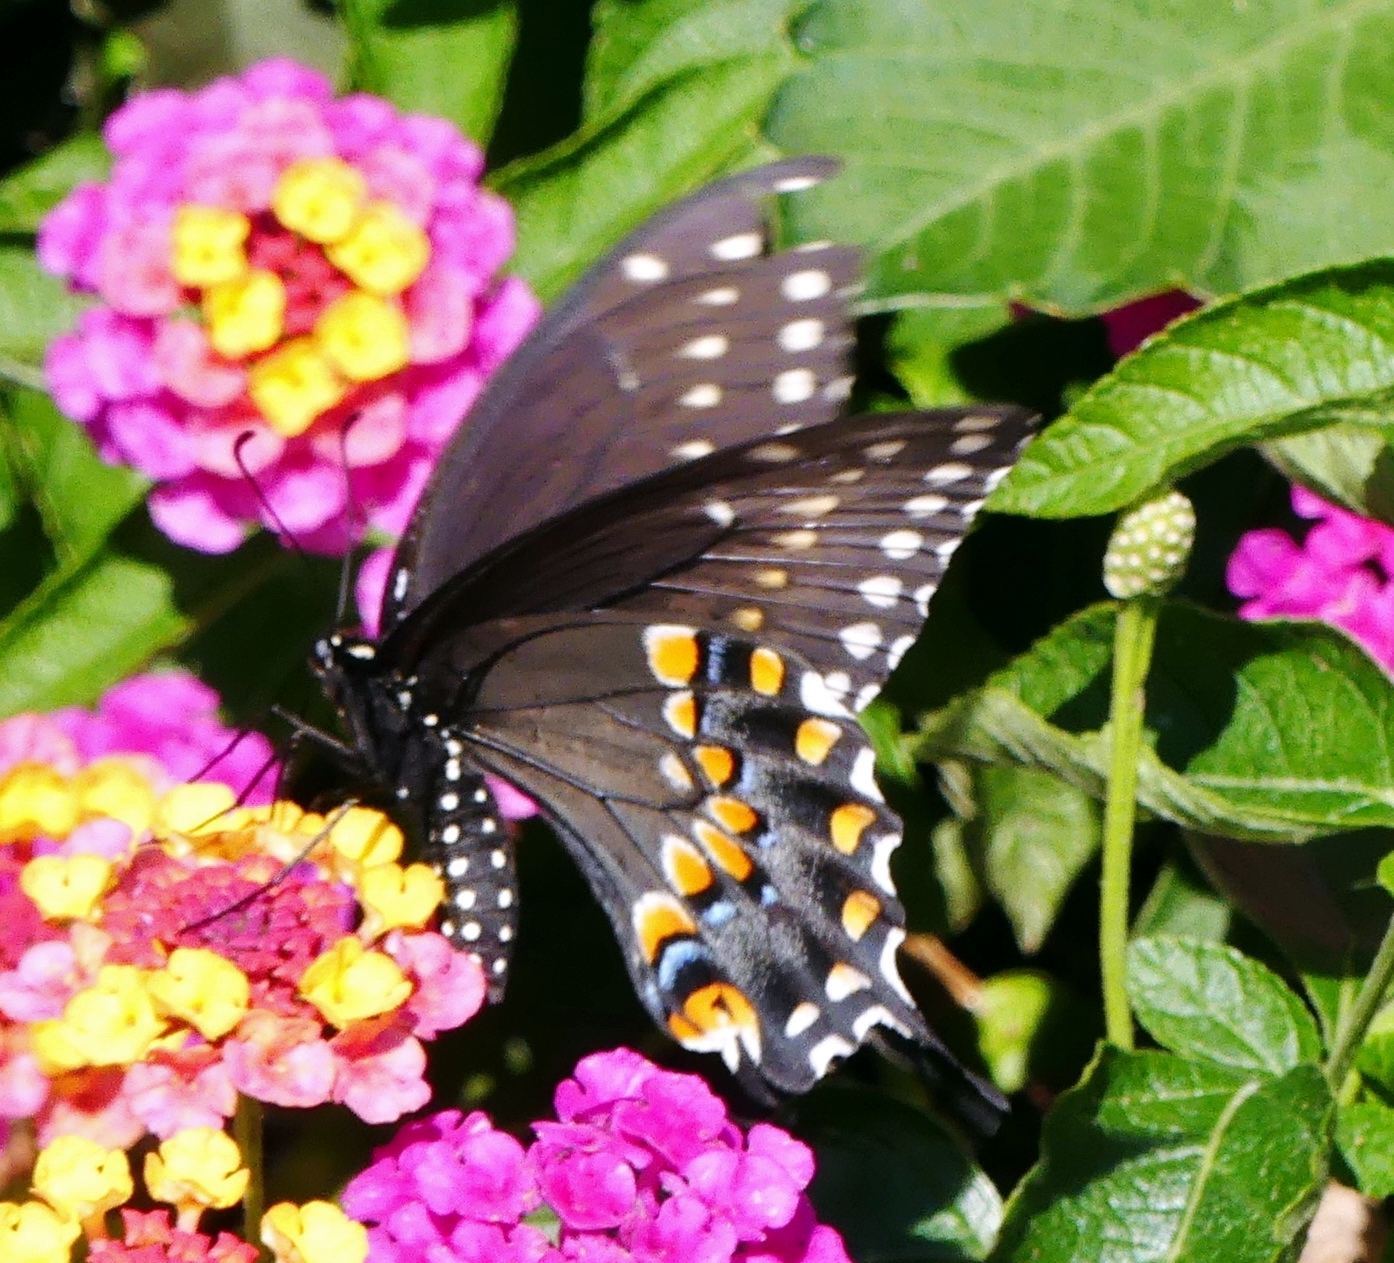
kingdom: Animalia
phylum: Arthropoda
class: Insecta
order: Lepidoptera
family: Papilionidae
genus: Papilio
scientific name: Papilio polyxenes
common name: Black swallowtail
